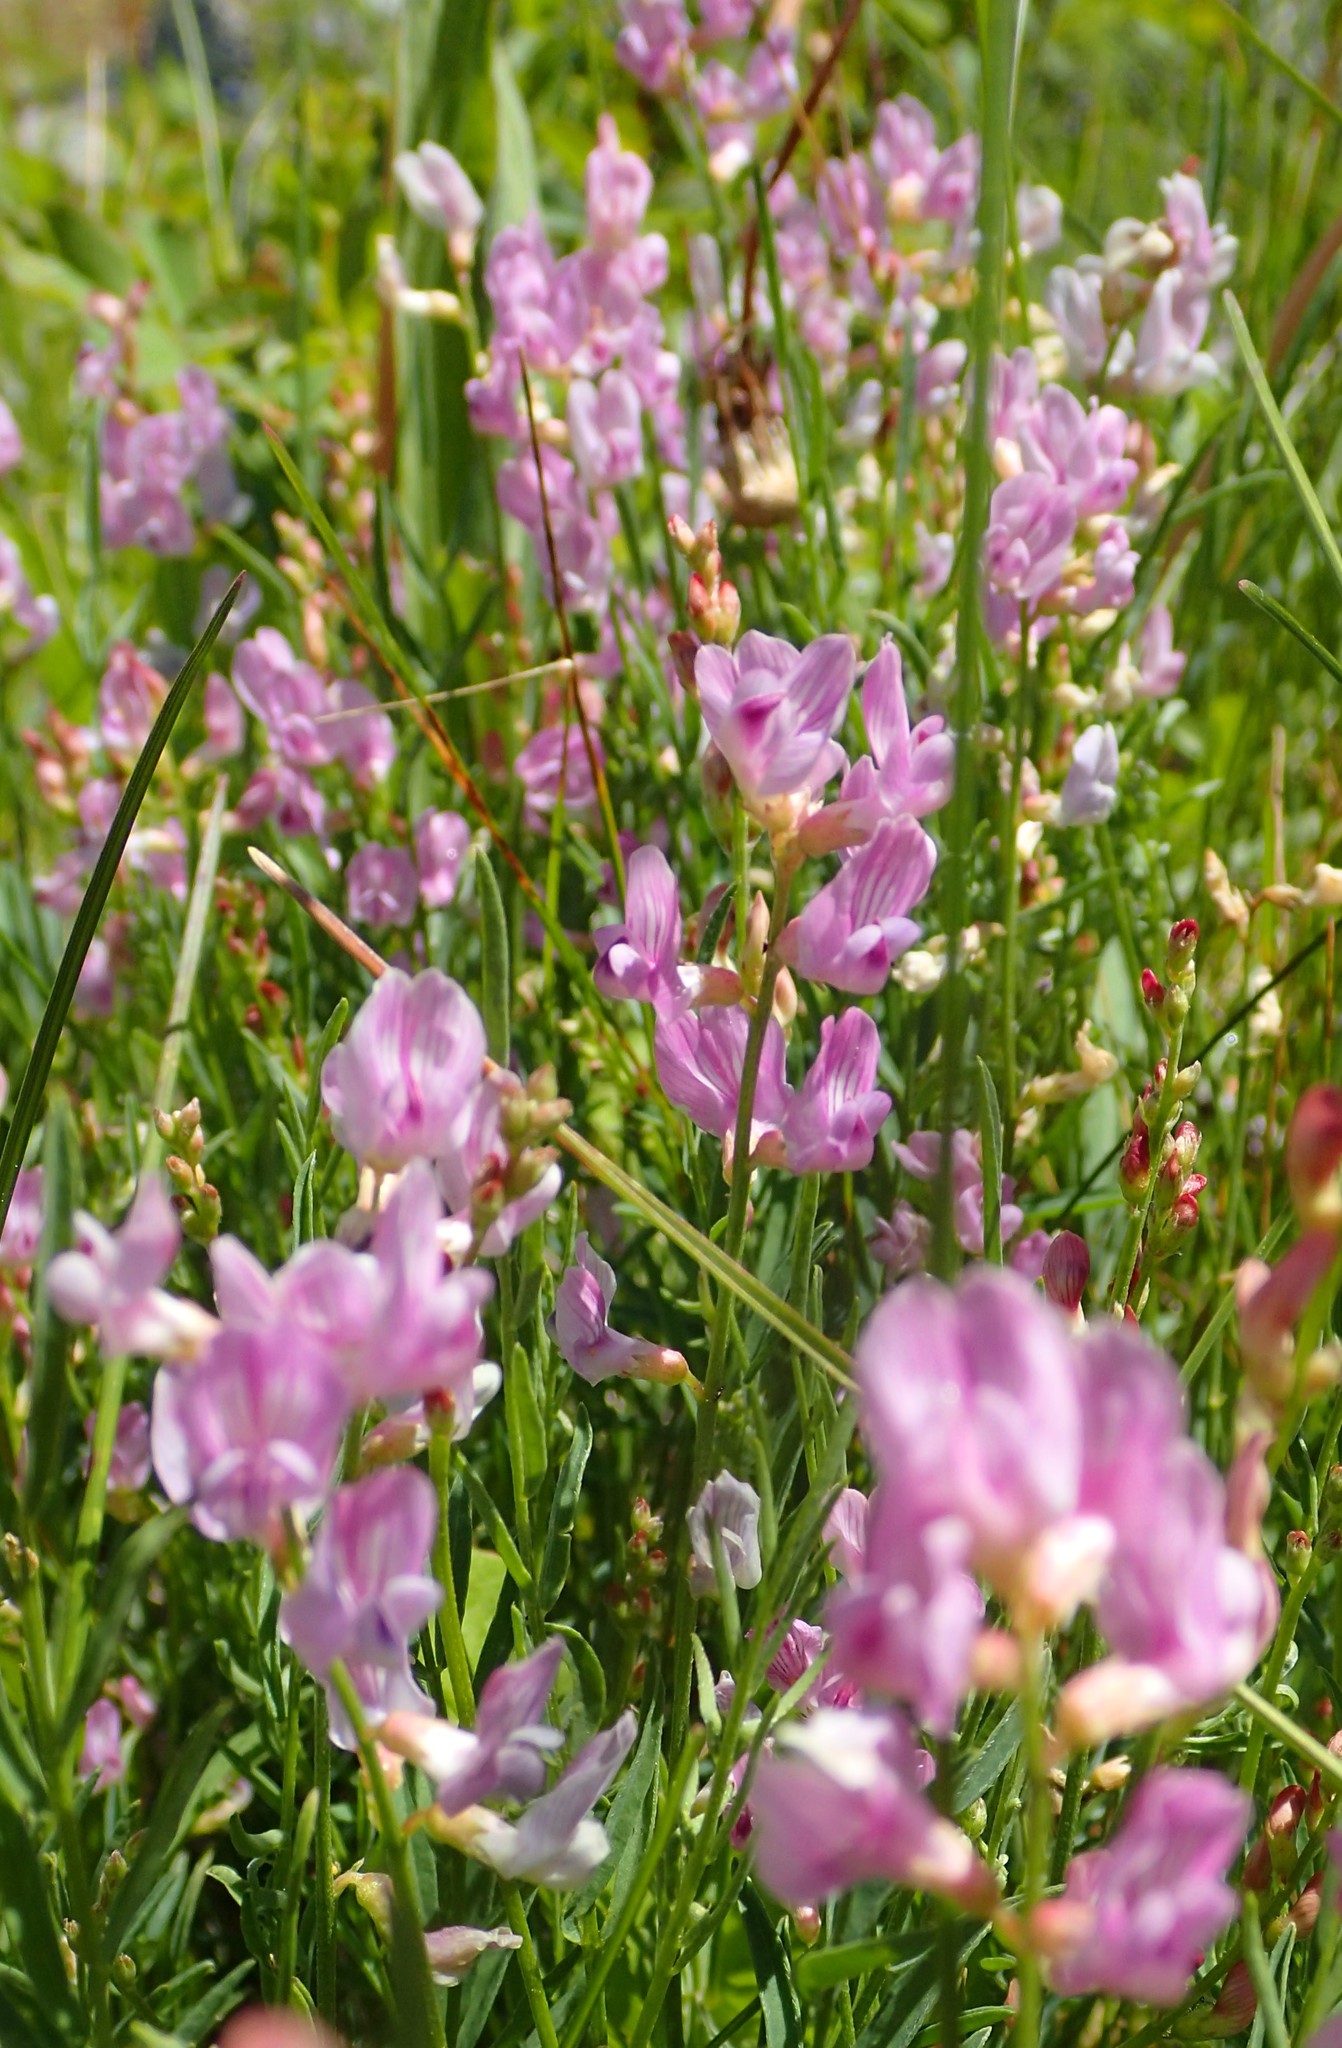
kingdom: Plantae
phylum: Tracheophyta
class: Magnoliopsida
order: Fabales
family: Fabaceae
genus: Astragalus
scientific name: Astragalus miser
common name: Timber milkvetch
